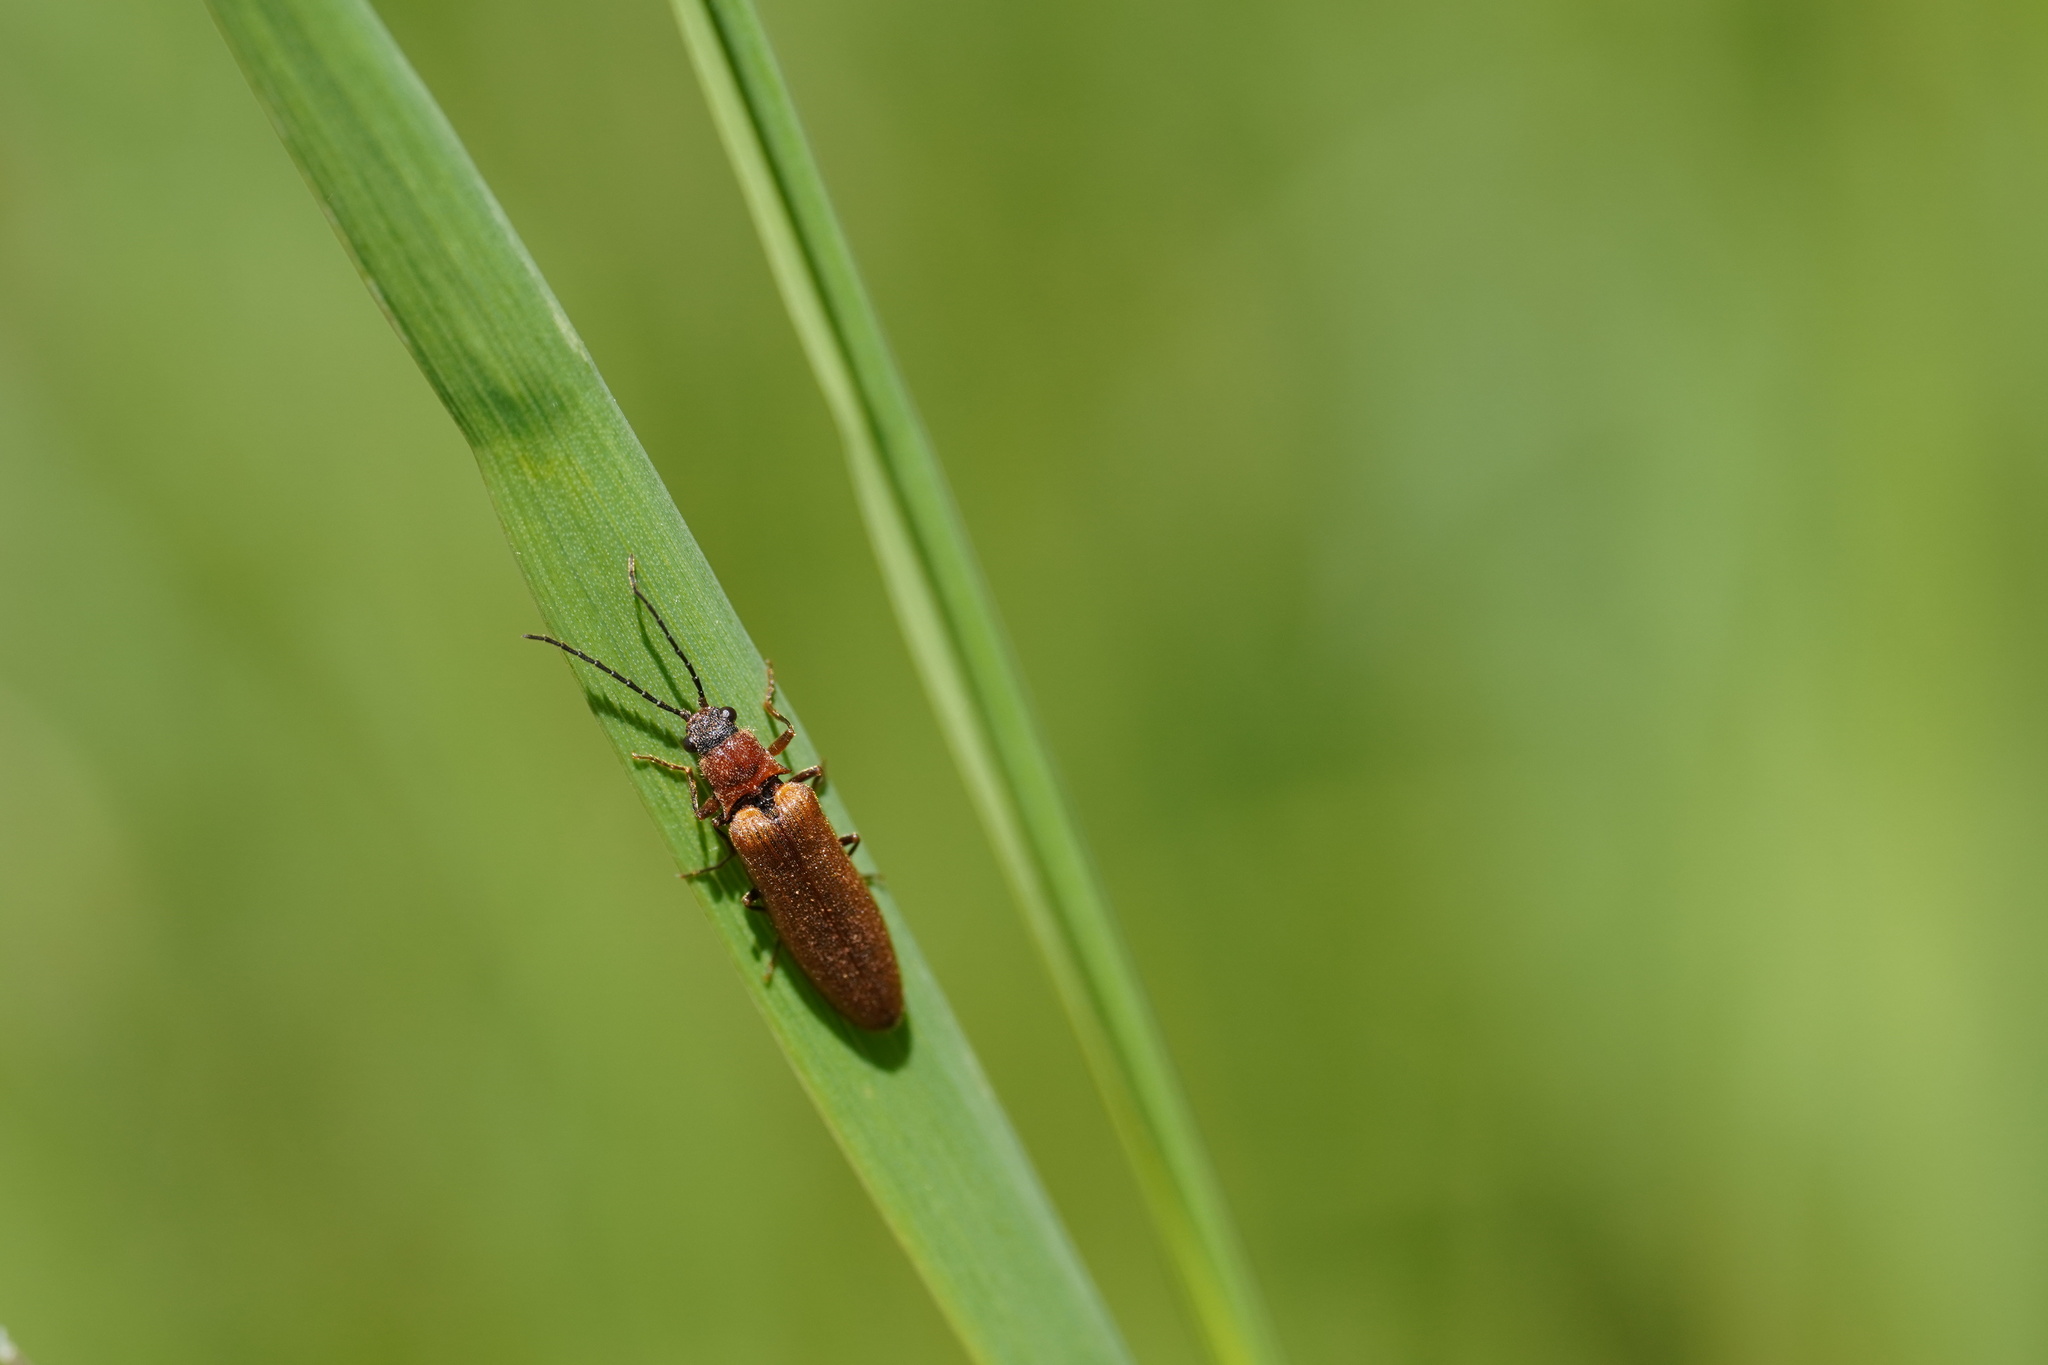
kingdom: Animalia
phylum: Arthropoda
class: Insecta
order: Coleoptera
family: Elateridae
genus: Denticollis
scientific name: Denticollis linearis
